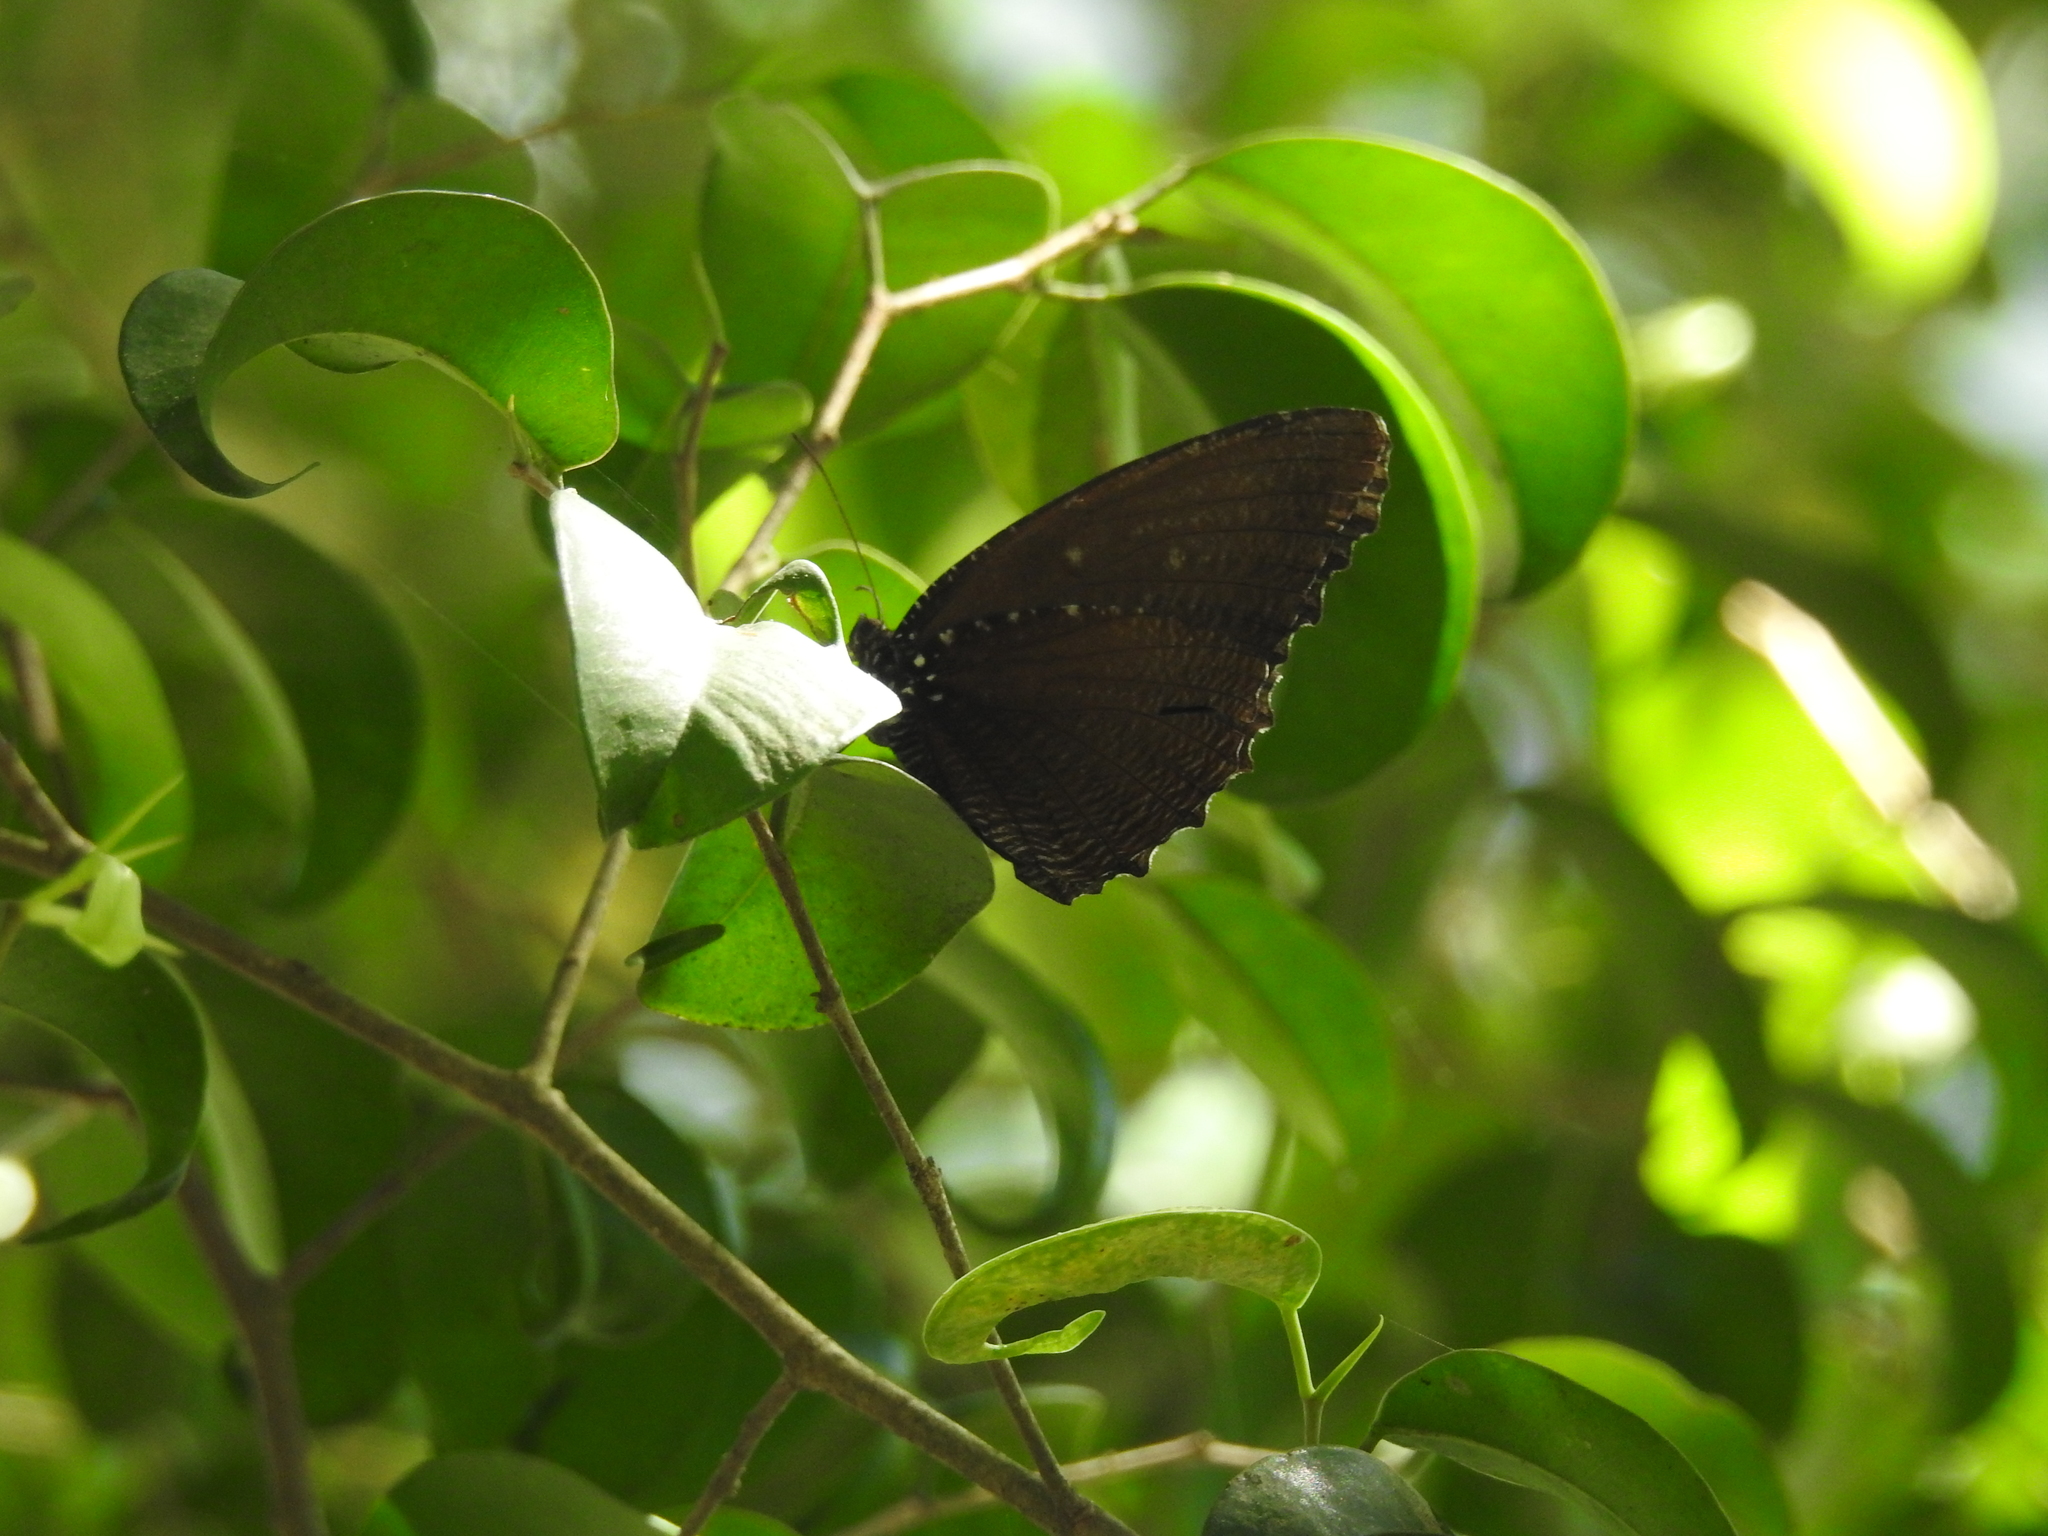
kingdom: Animalia
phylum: Arthropoda
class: Insecta
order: Lepidoptera
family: Nymphalidae
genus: Elymnias
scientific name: Elymnias malelas
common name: Spotted palmfly
